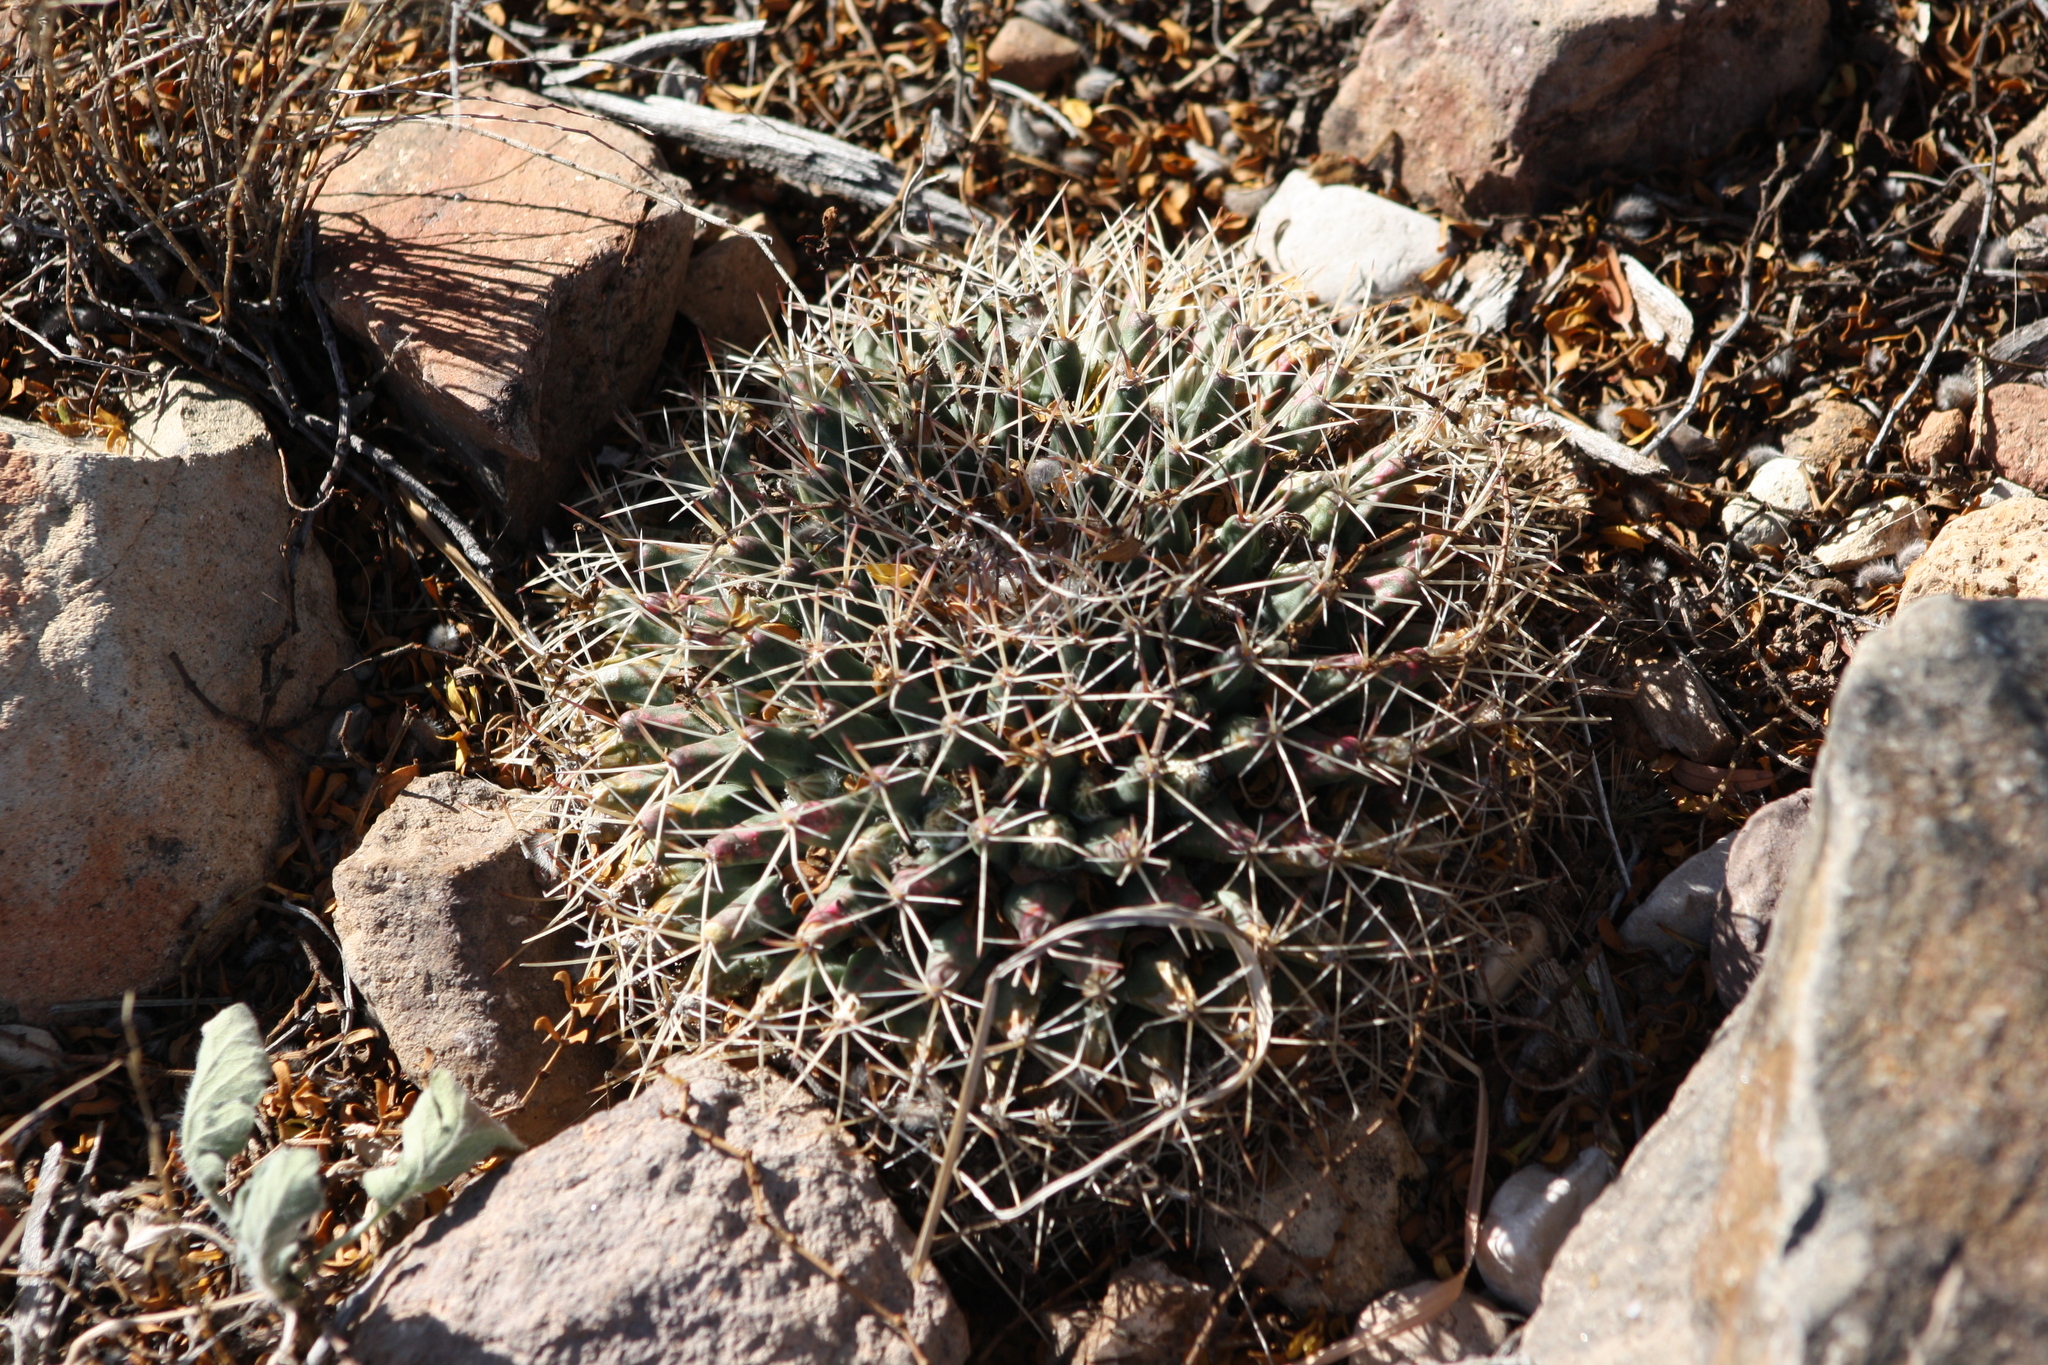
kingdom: Plantae
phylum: Tracheophyta
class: Magnoliopsida
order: Caryophyllales
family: Cactaceae
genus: Mammillaria
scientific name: Mammillaria heyderi
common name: Little nipple cactus
